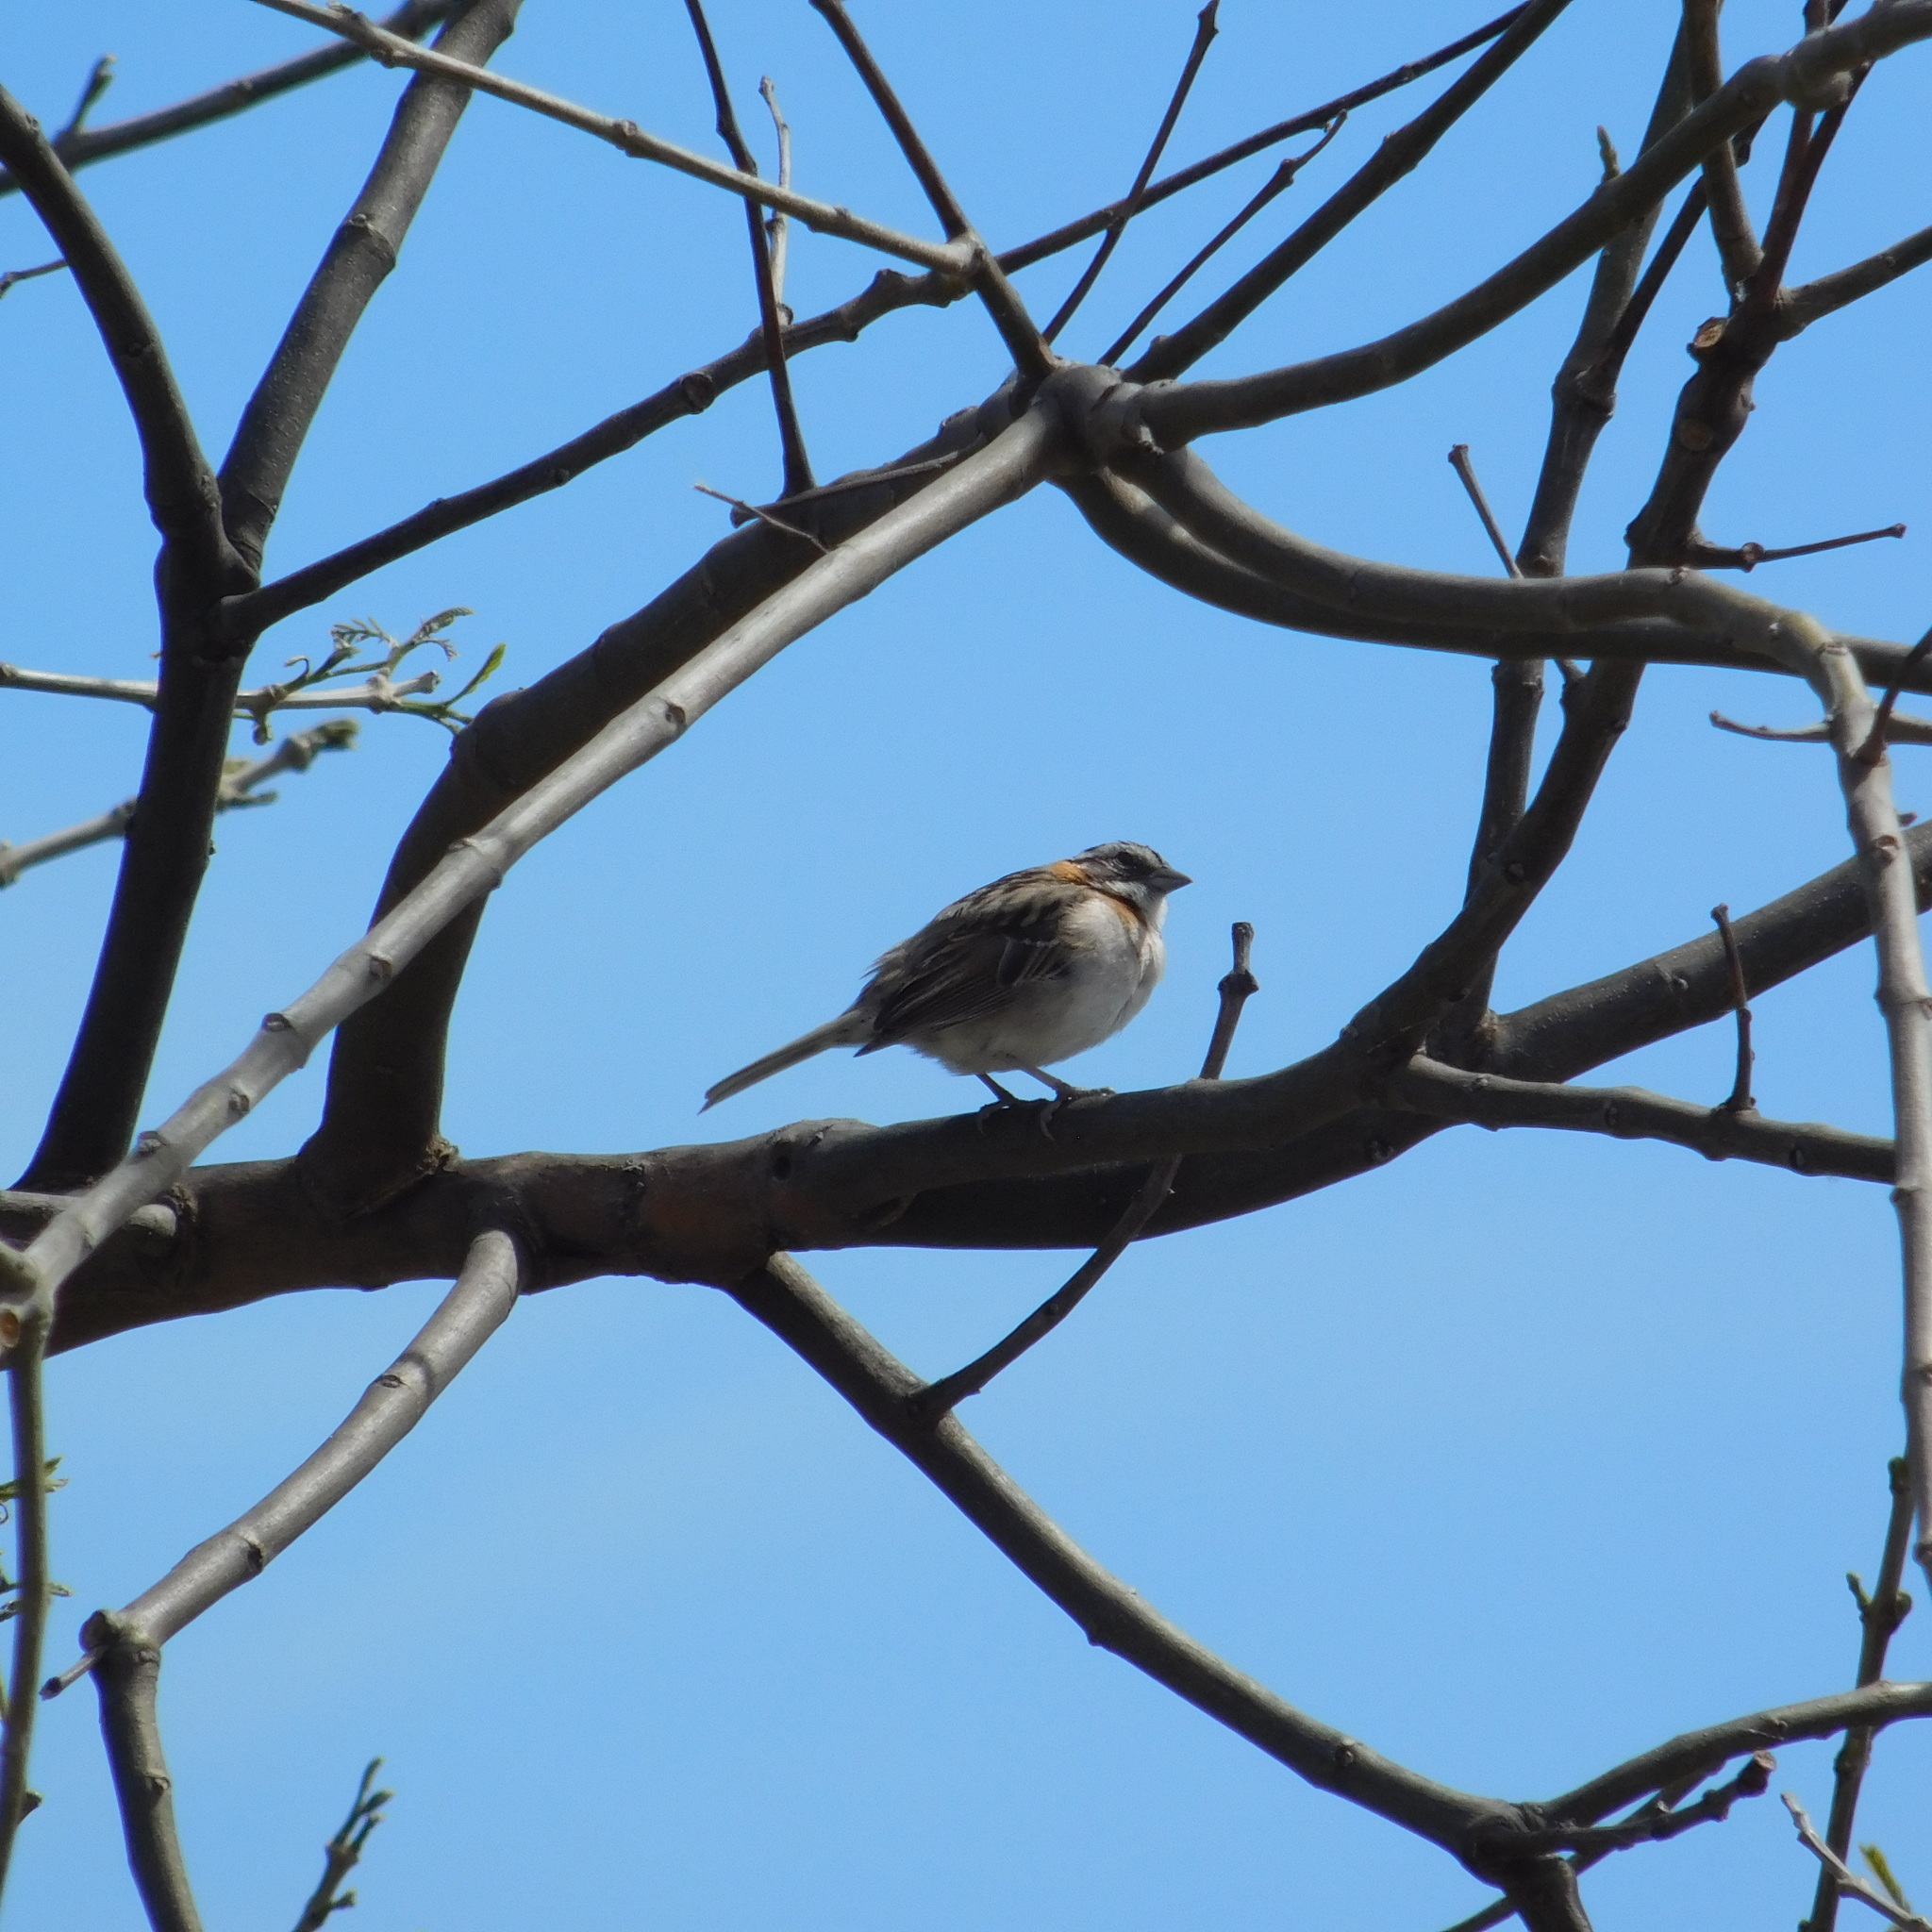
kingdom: Animalia
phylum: Chordata
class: Aves
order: Passeriformes
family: Passerellidae
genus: Zonotrichia
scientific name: Zonotrichia capensis
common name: Rufous-collared sparrow
